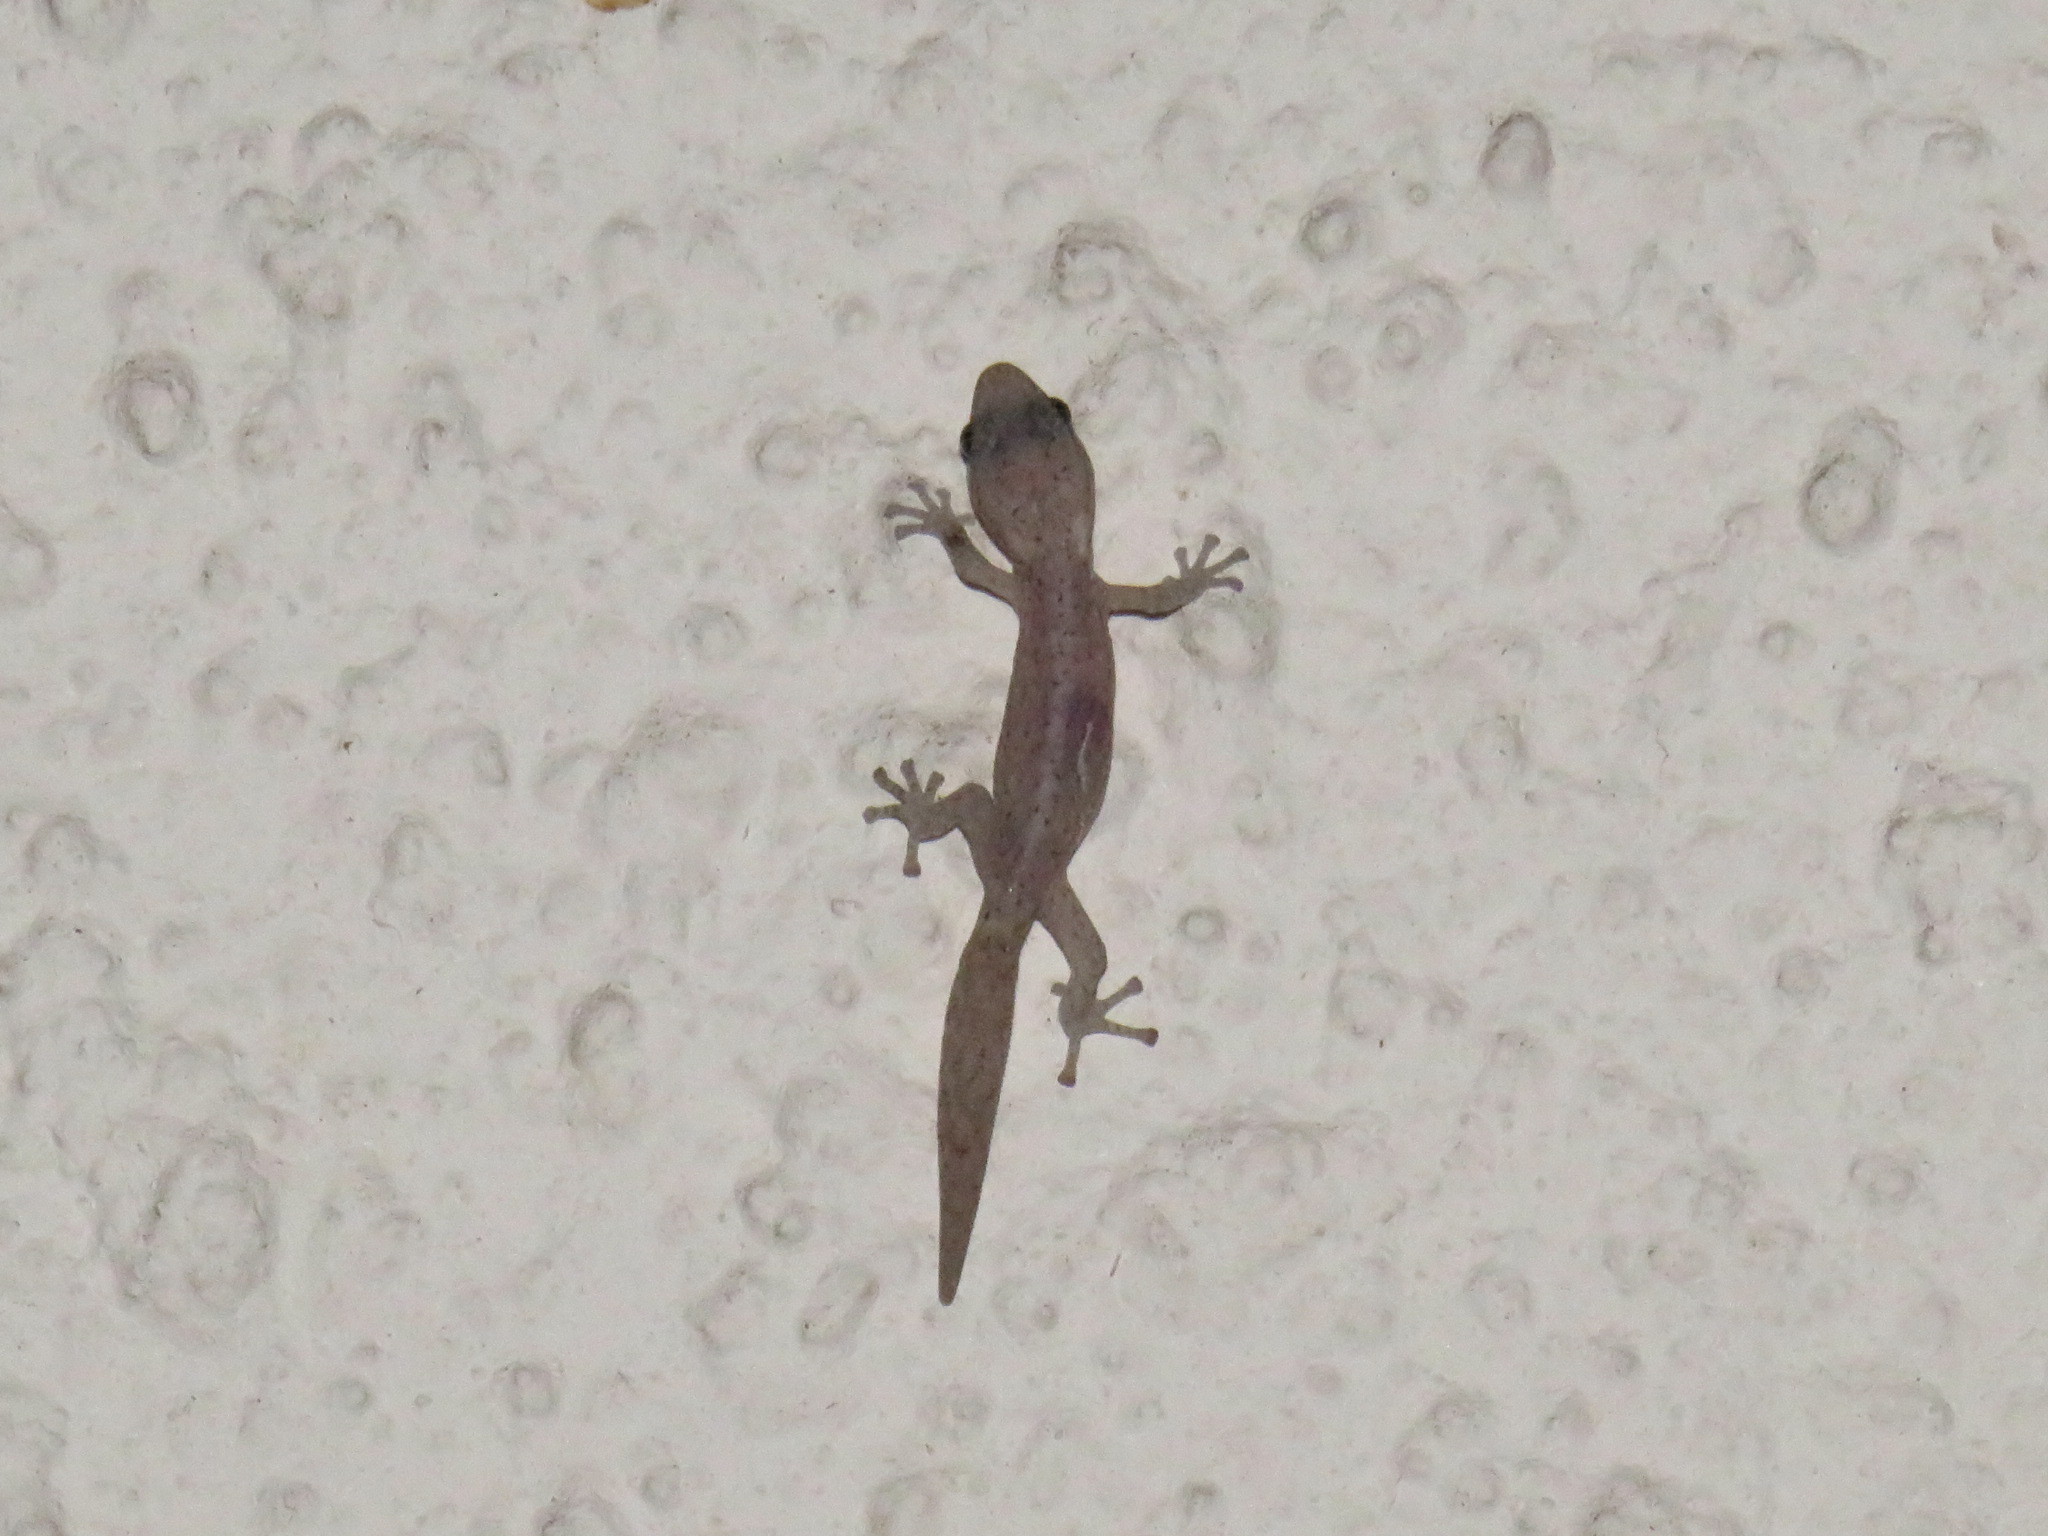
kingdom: Animalia
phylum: Chordata
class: Squamata
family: Gekkonidae
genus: Afrogecko
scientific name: Afrogecko porphyreus
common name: Marbled leaf-toed gecko
